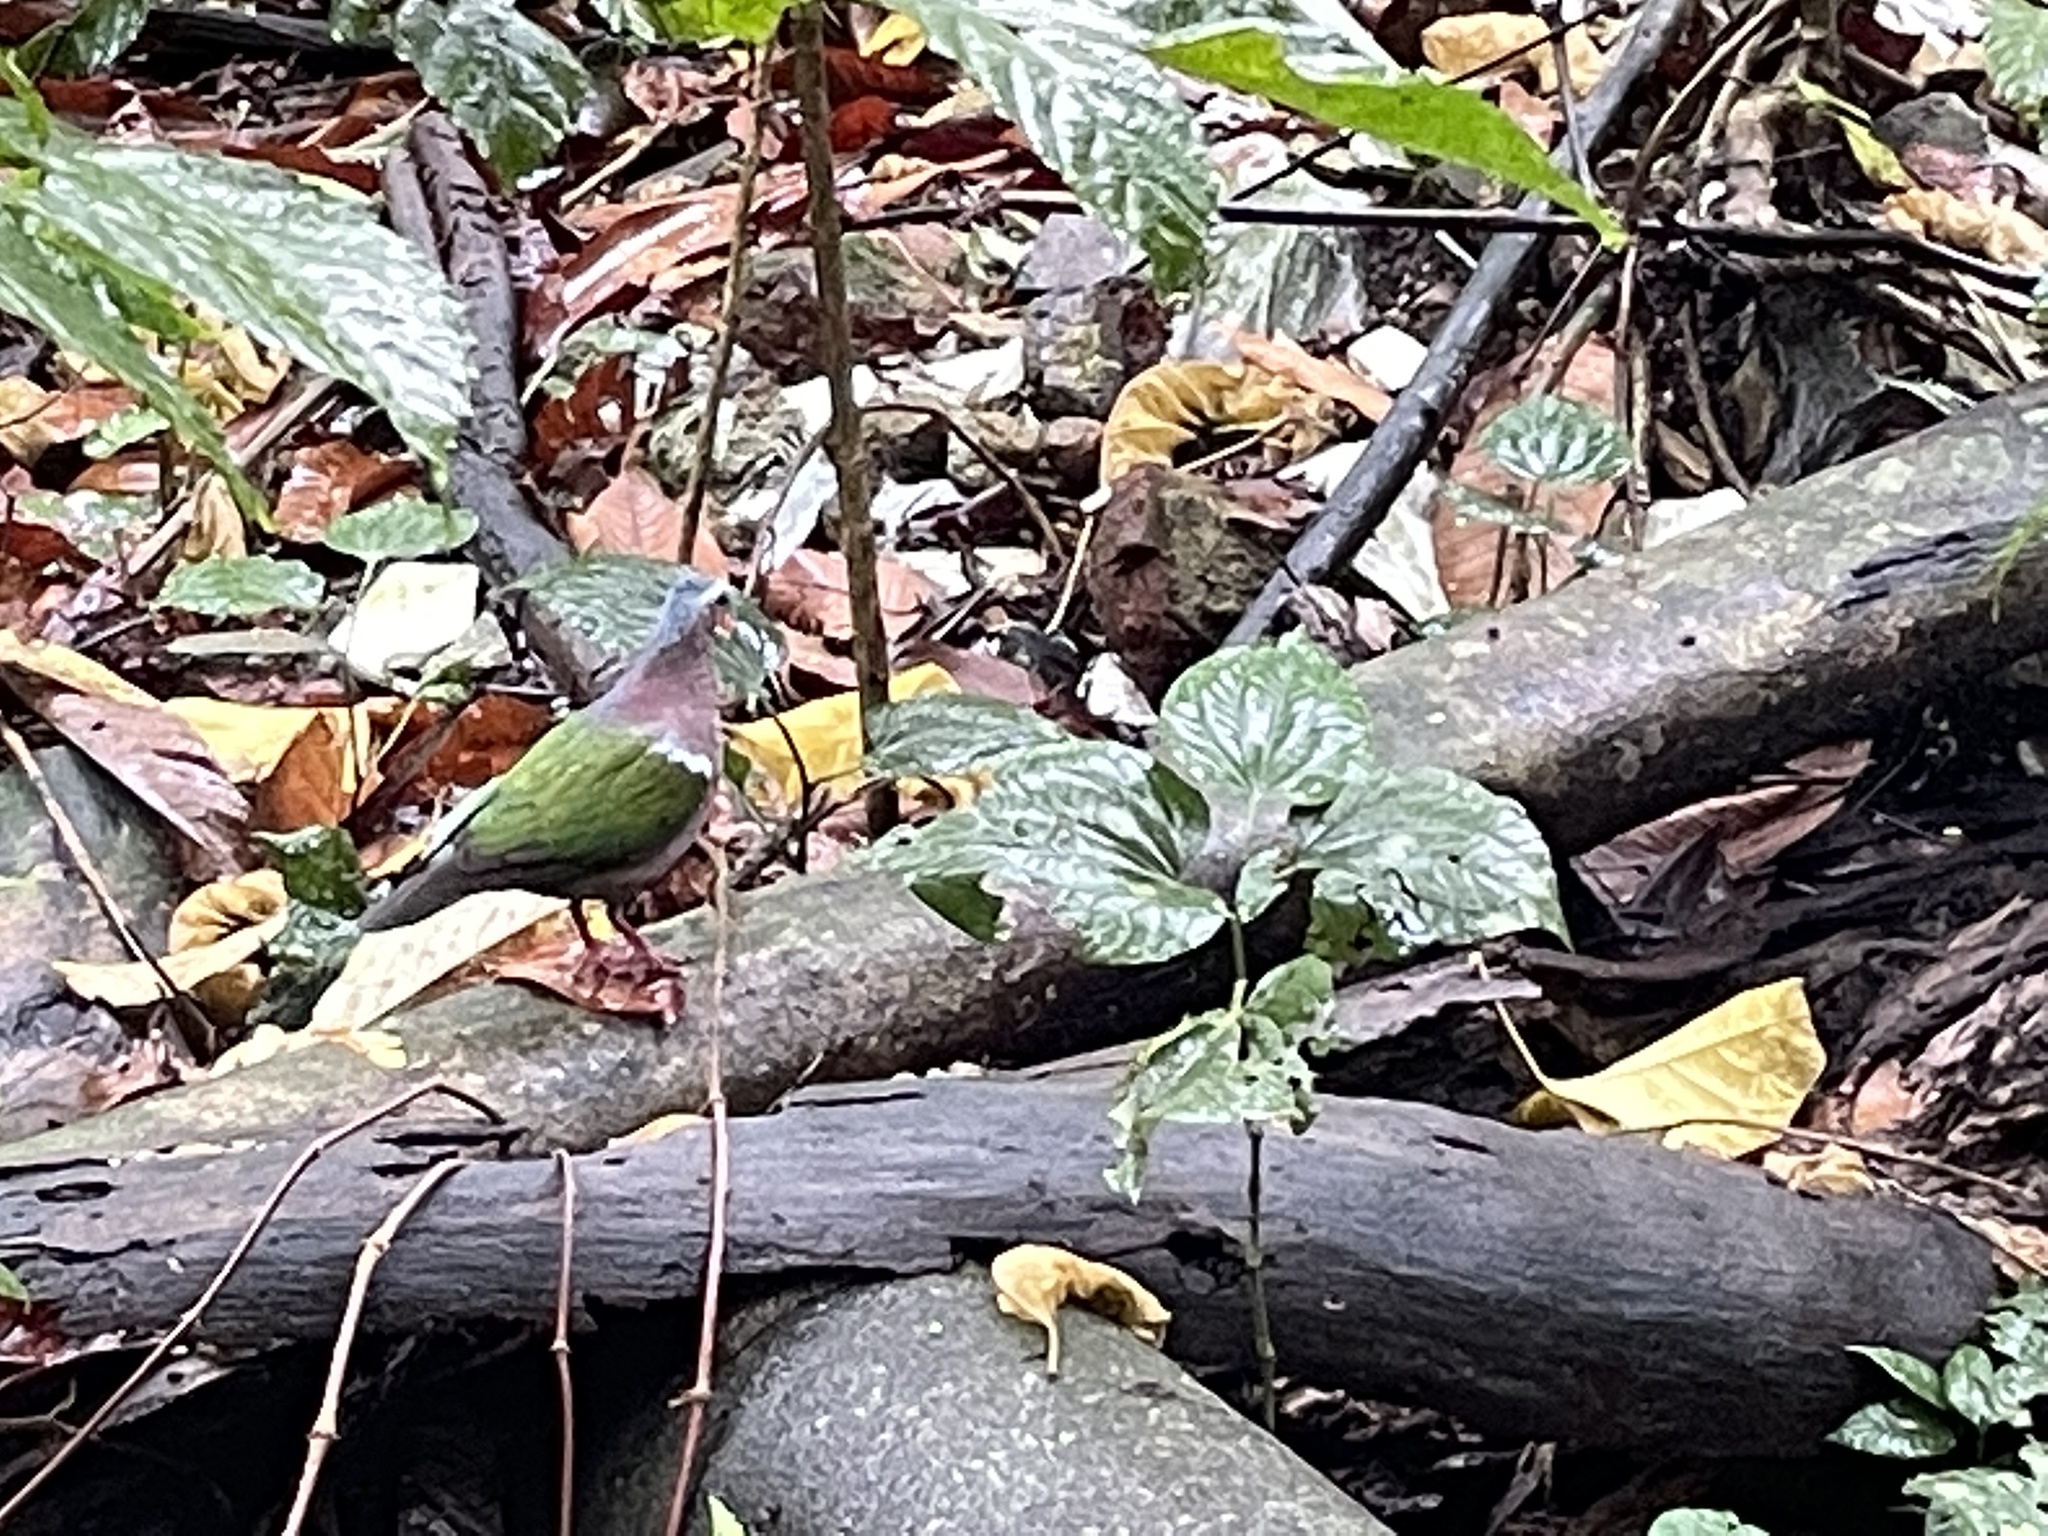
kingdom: Animalia
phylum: Chordata
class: Aves
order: Columbiformes
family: Columbidae
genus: Chalcophaps
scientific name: Chalcophaps indica
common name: Common emerald dove
